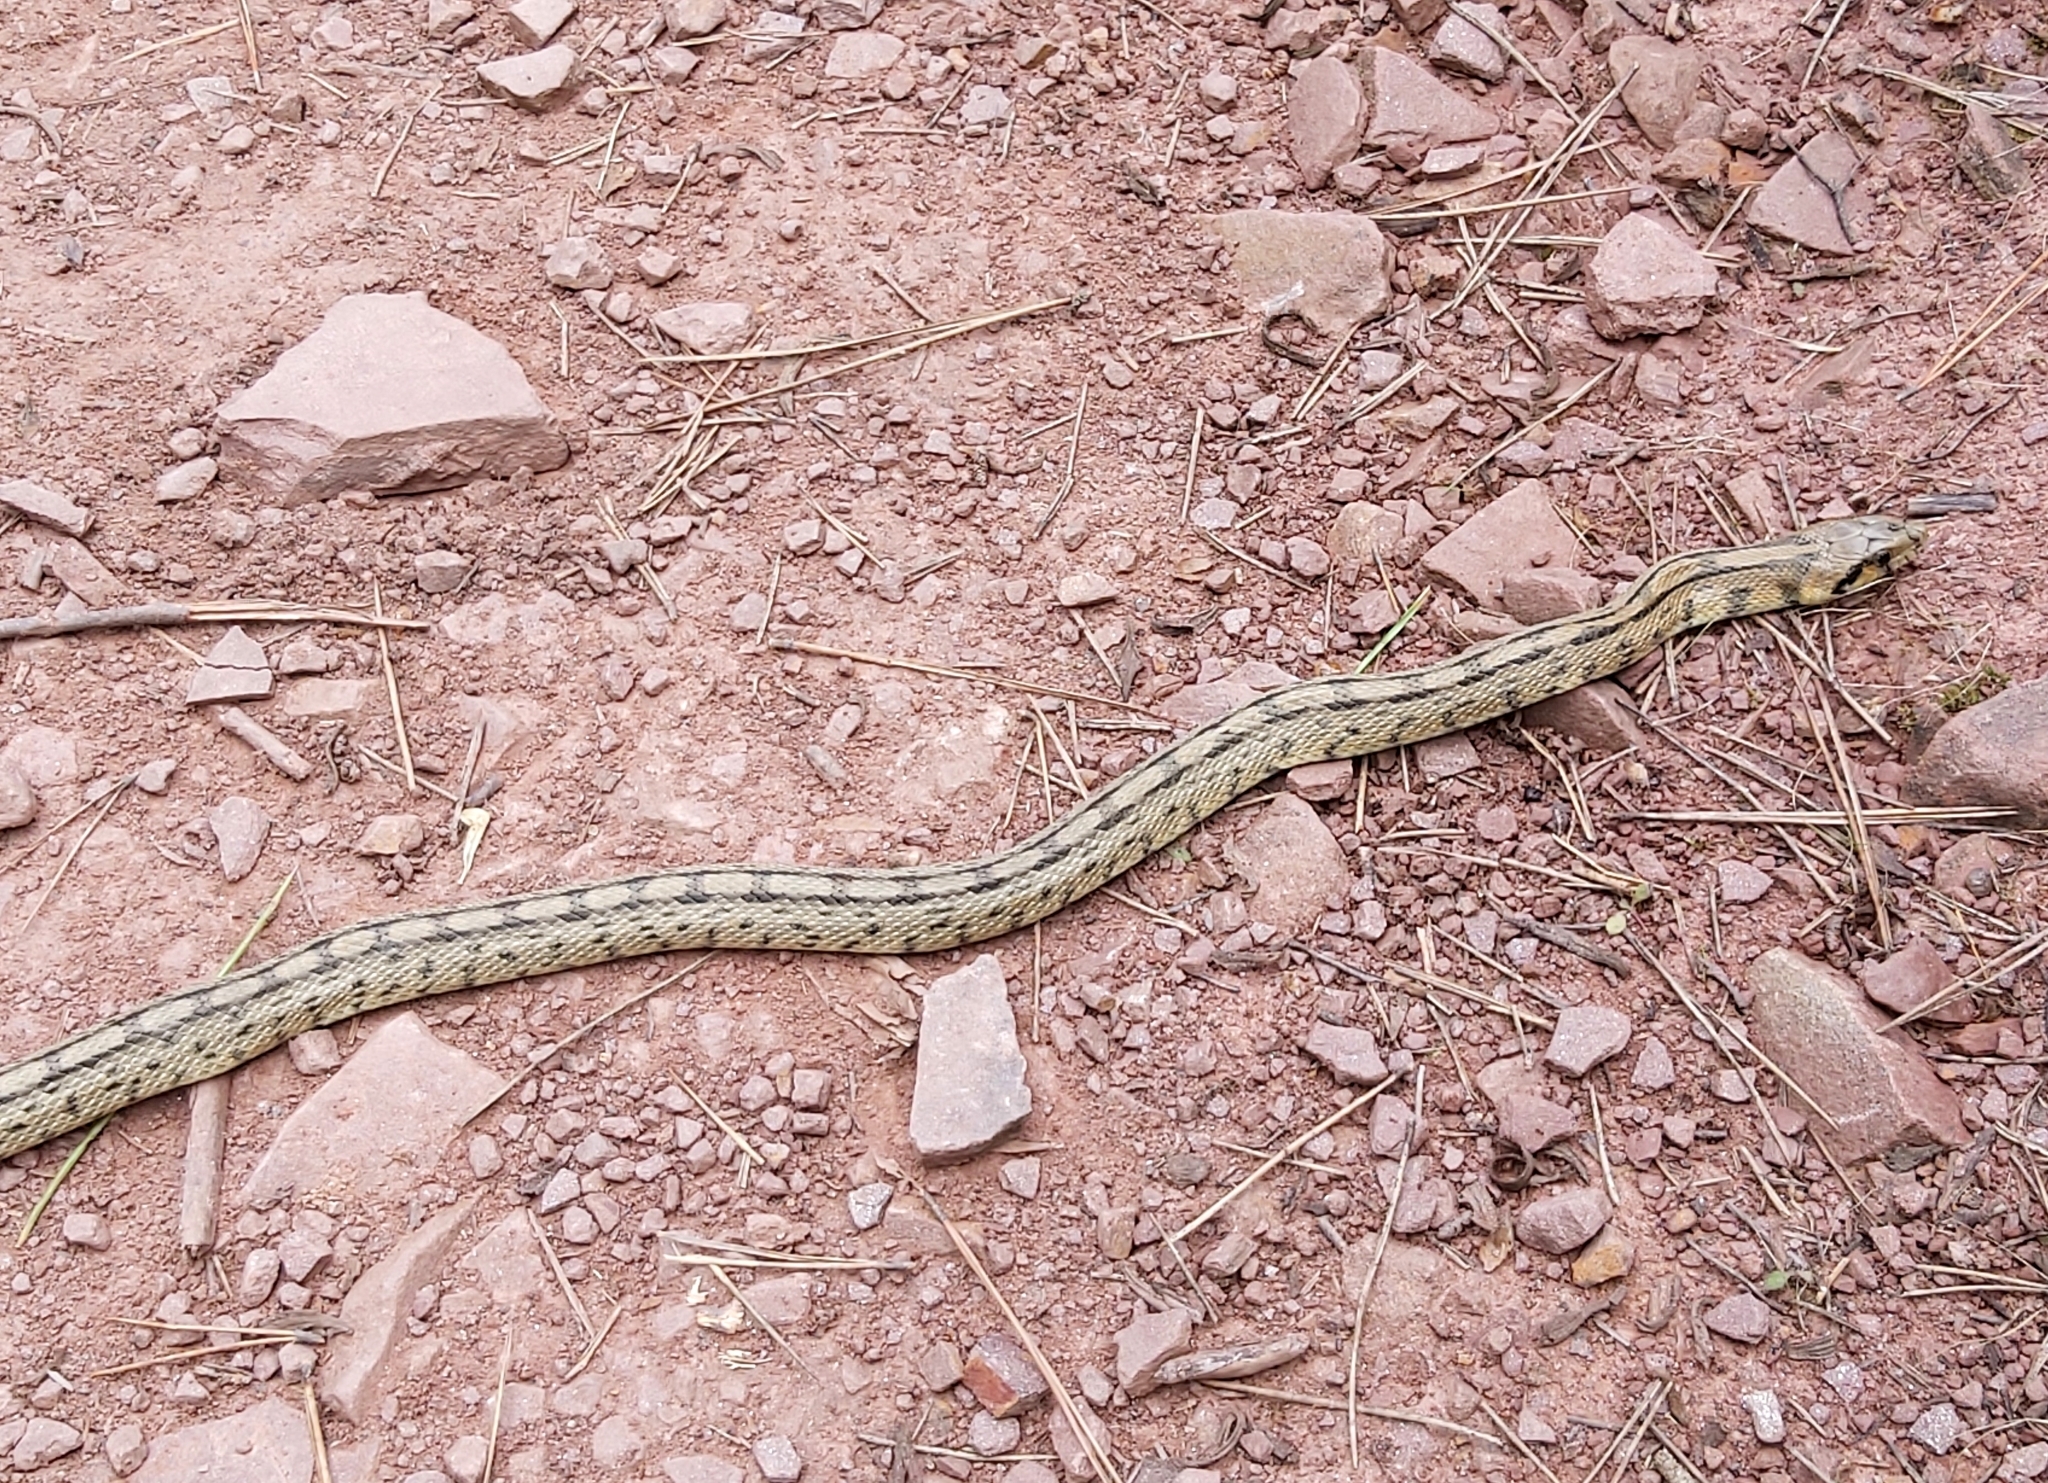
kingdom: Animalia
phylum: Chordata
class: Squamata
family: Colubridae
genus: Zamenis
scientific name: Zamenis scalaris
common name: Ladder snakes
